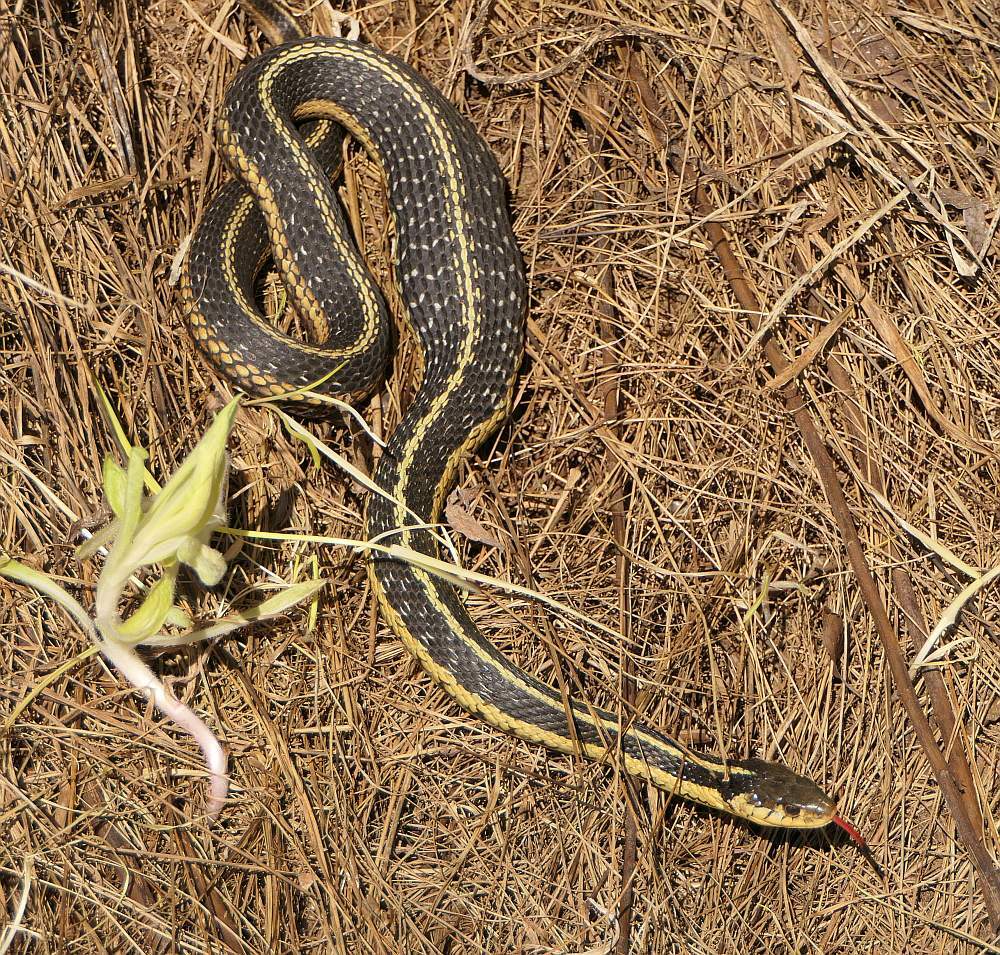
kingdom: Animalia
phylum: Chordata
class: Squamata
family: Colubridae
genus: Thamnophis
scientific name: Thamnophis sirtalis
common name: Common garter snake
